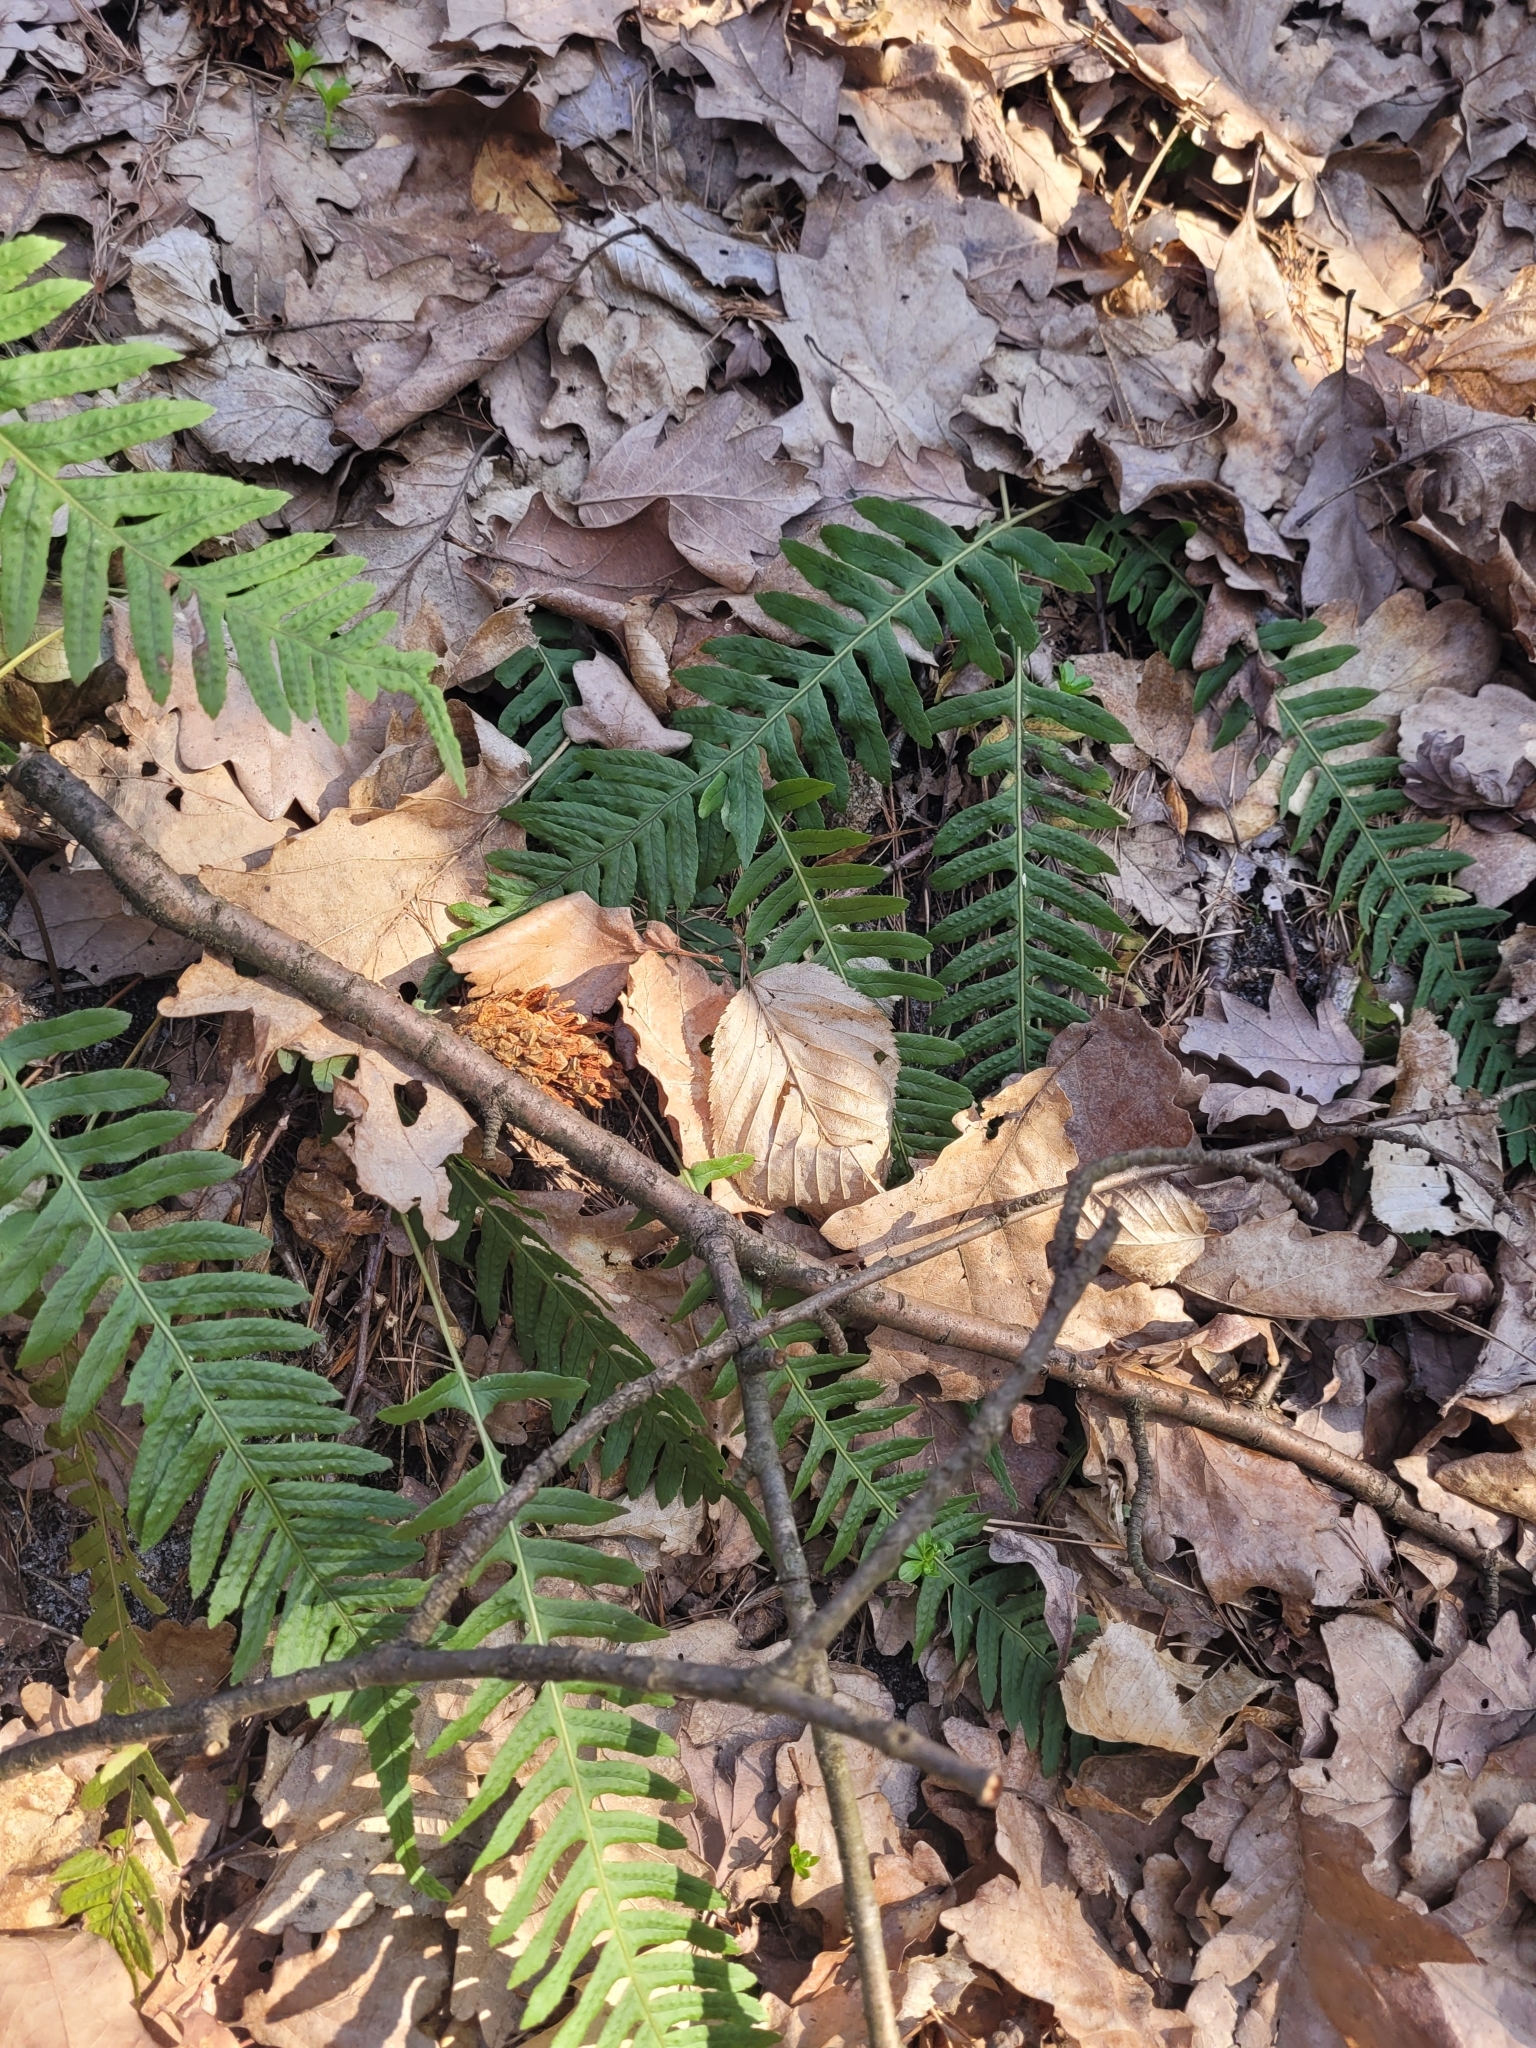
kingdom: Plantae
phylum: Tracheophyta
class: Polypodiopsida
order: Polypodiales
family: Polypodiaceae
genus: Polypodium
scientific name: Polypodium vulgare
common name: Common polypody
